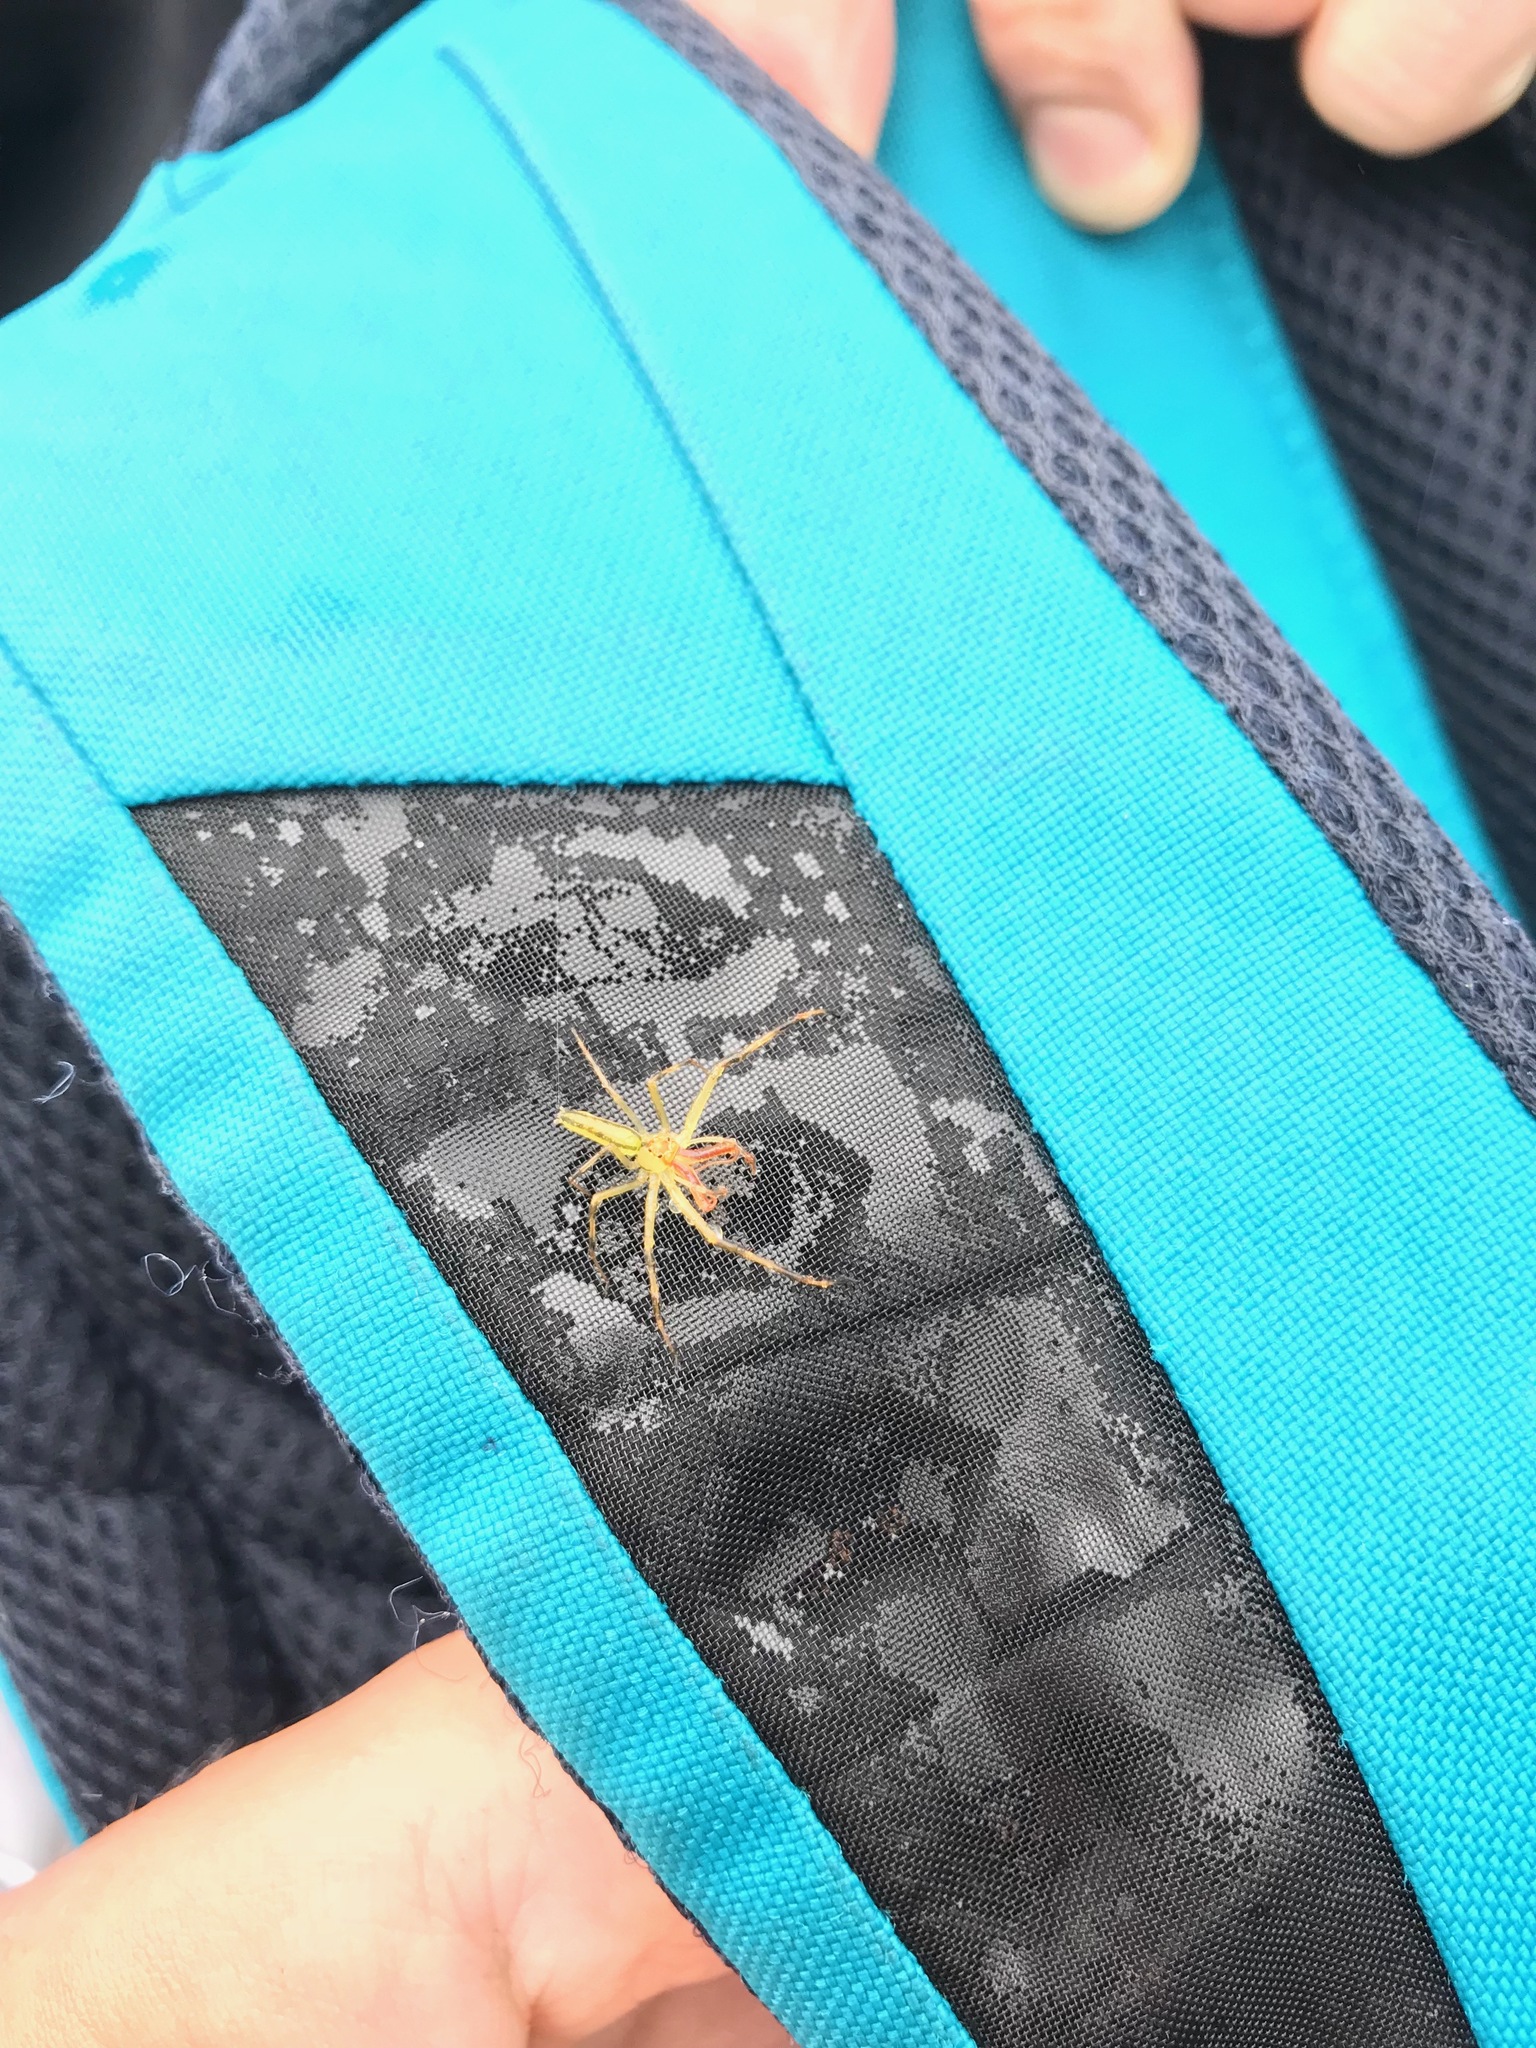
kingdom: Animalia
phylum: Arthropoda
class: Arachnida
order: Araneae
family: Salticidae
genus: Lyssomanes
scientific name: Lyssomanes viridis
